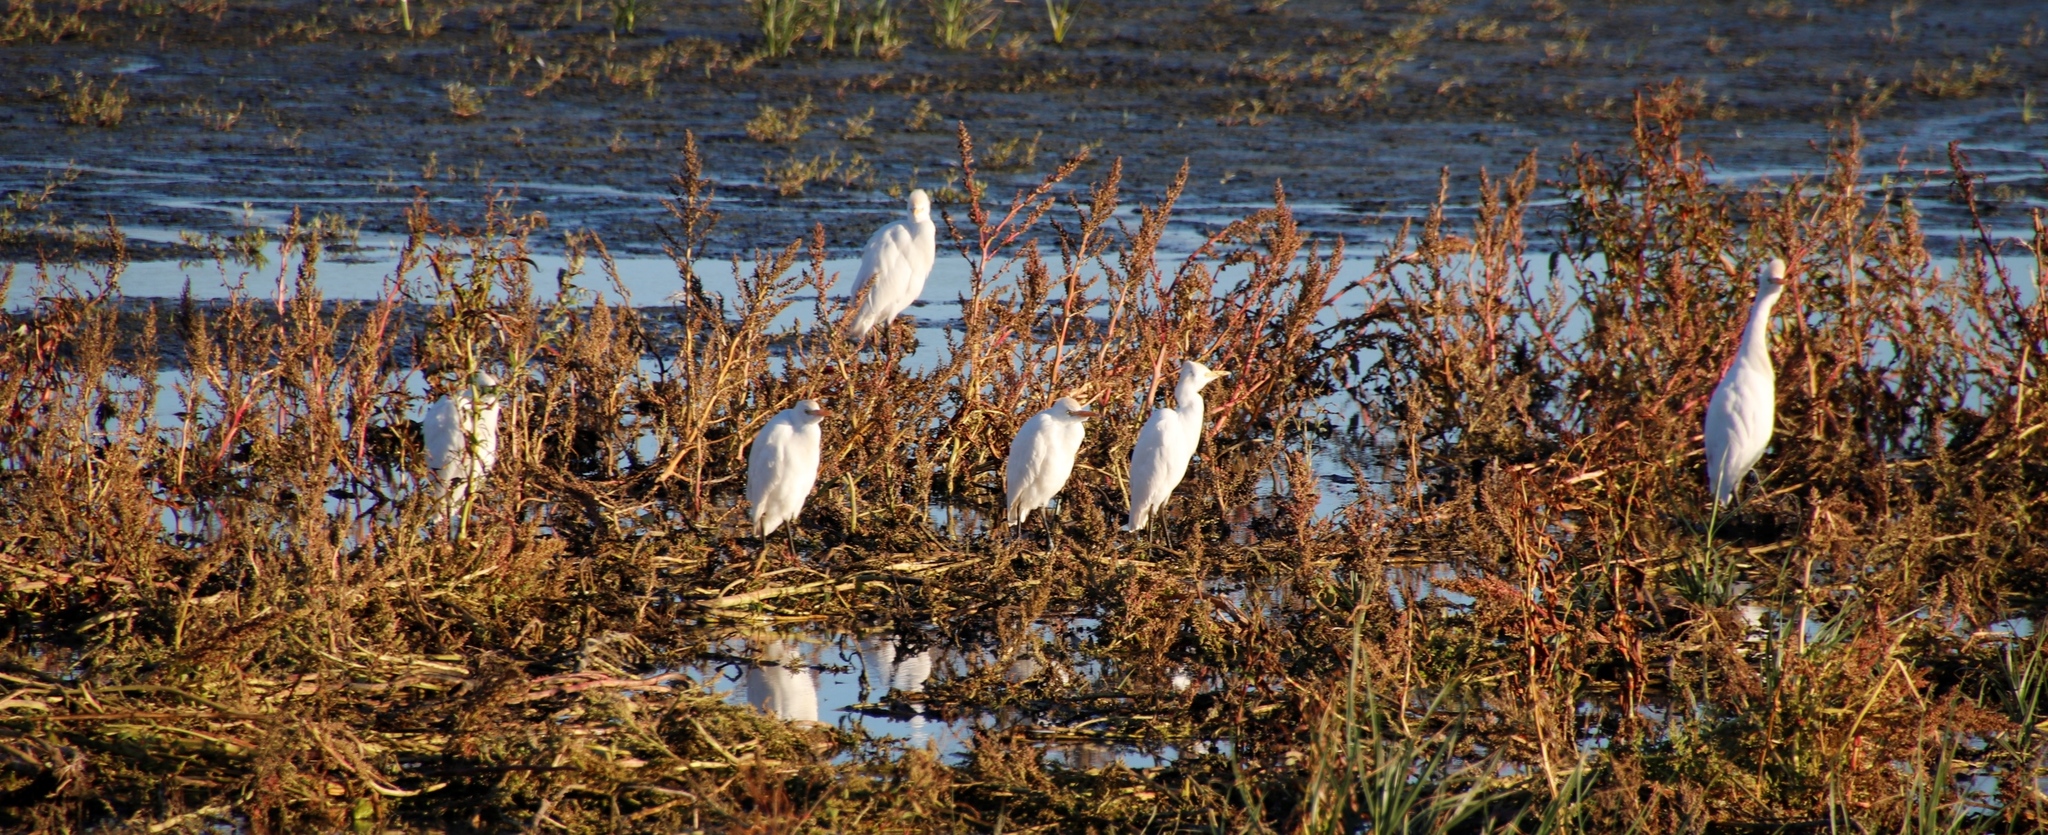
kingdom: Animalia
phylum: Chordata
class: Aves
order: Pelecaniformes
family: Ardeidae
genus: Bubulcus
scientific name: Bubulcus ibis
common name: Cattle egret
